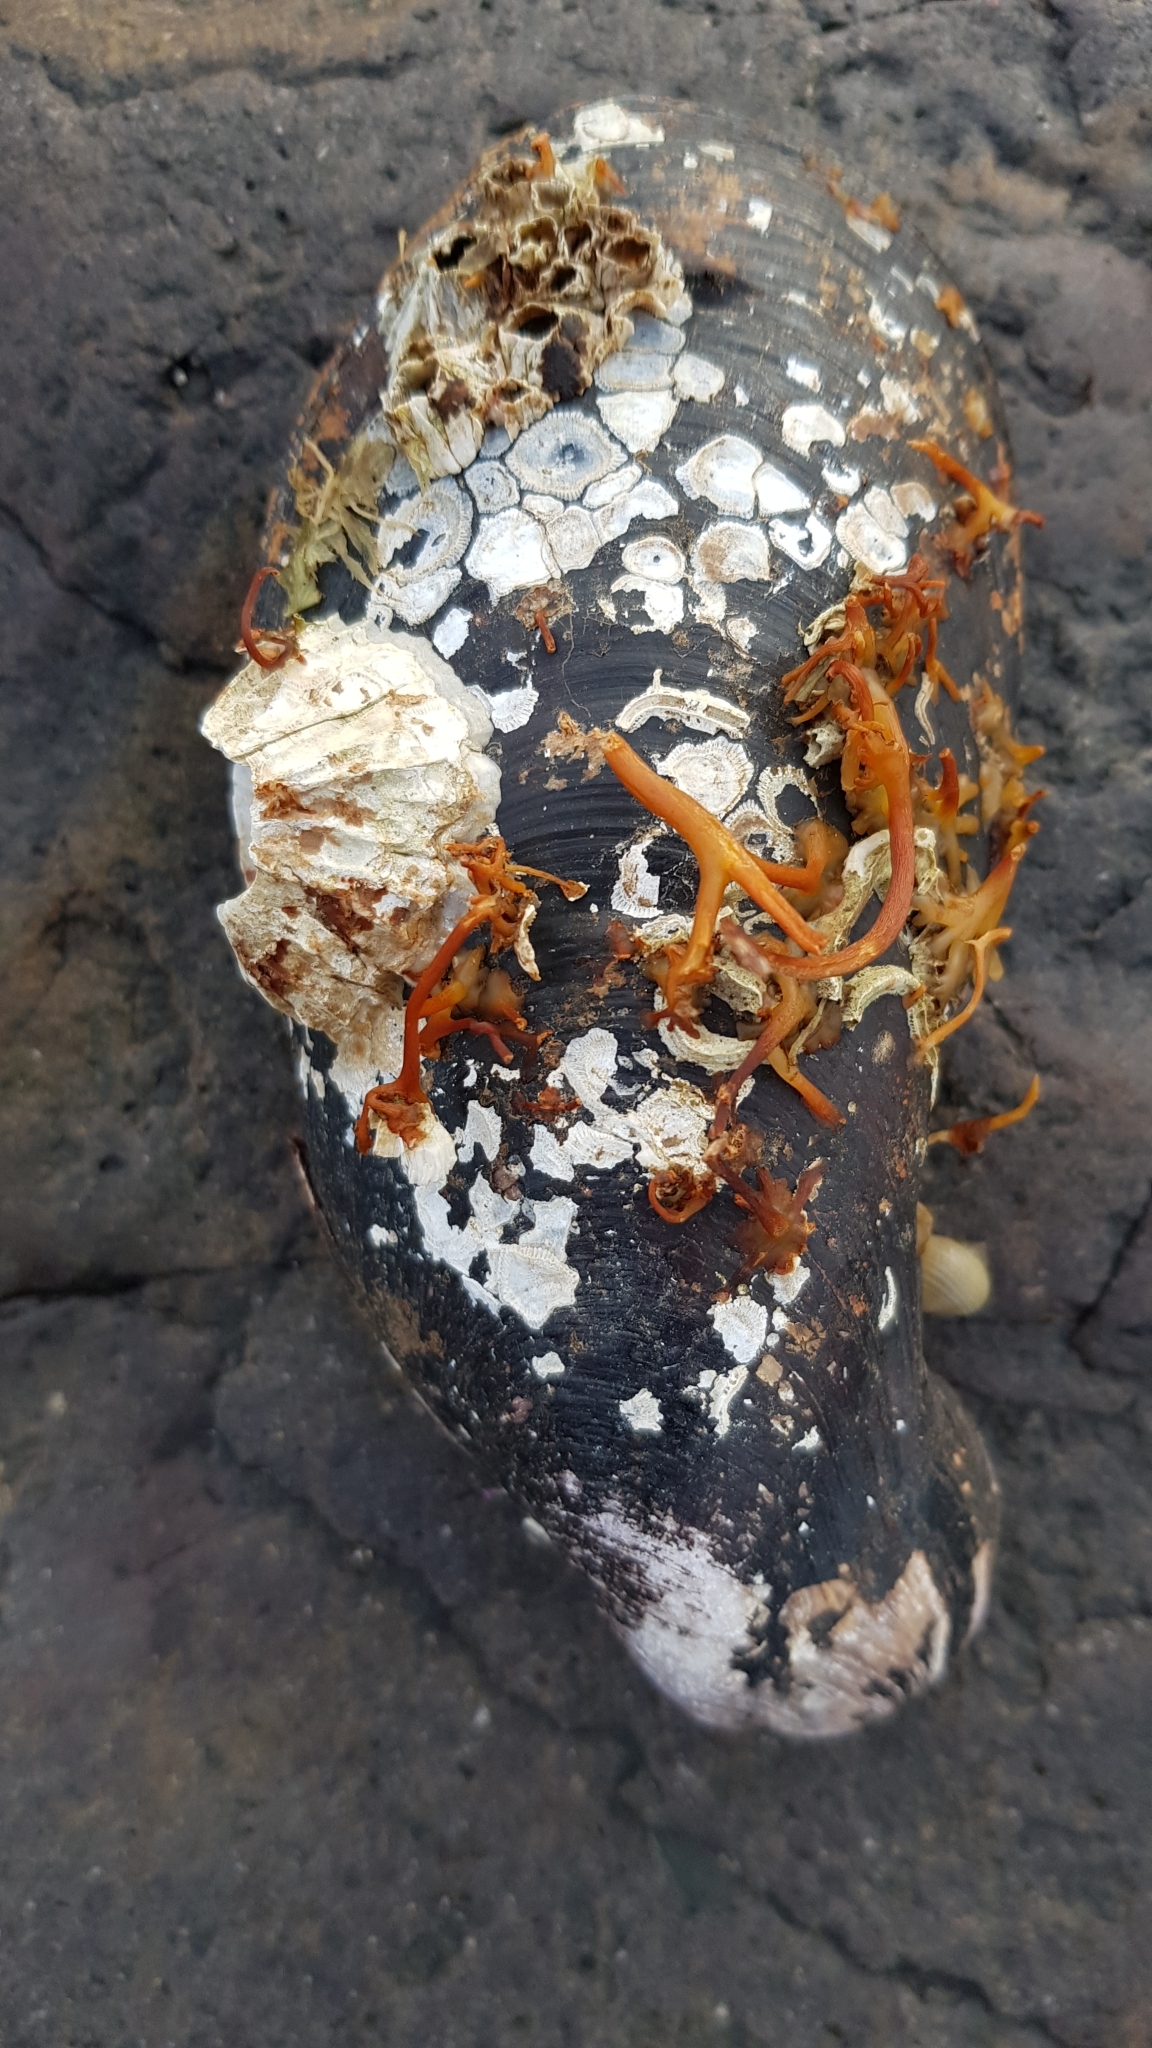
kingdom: Animalia
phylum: Mollusca
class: Bivalvia
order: Mytilida
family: Mytilidae
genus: Modiolus
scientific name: Modiolus modiolus
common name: Horse-mussel
